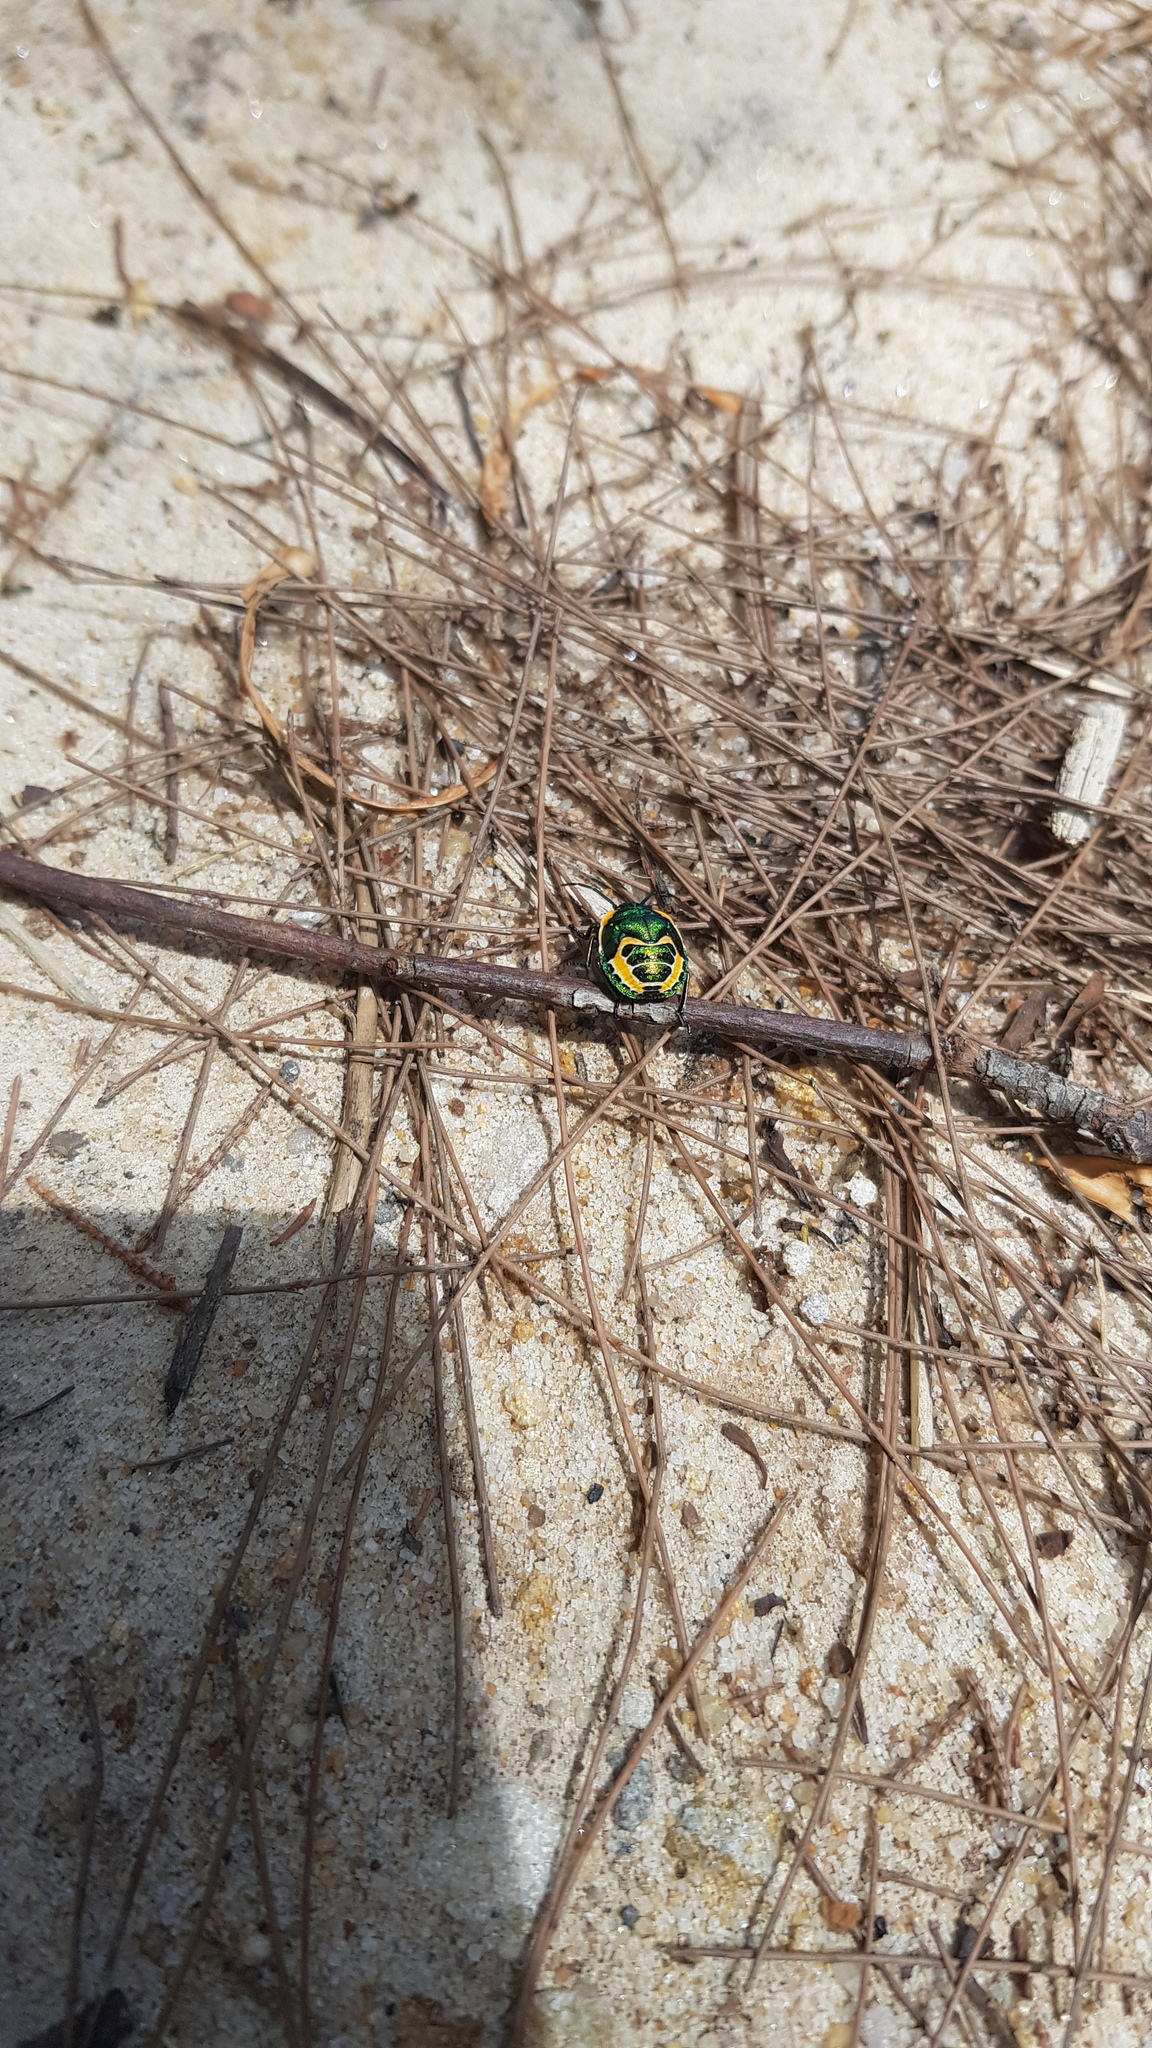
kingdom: Animalia
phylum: Arthropoda
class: Insecta
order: Hemiptera
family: Scutelleridae
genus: Scutiphora
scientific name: Scutiphora pedicellata
